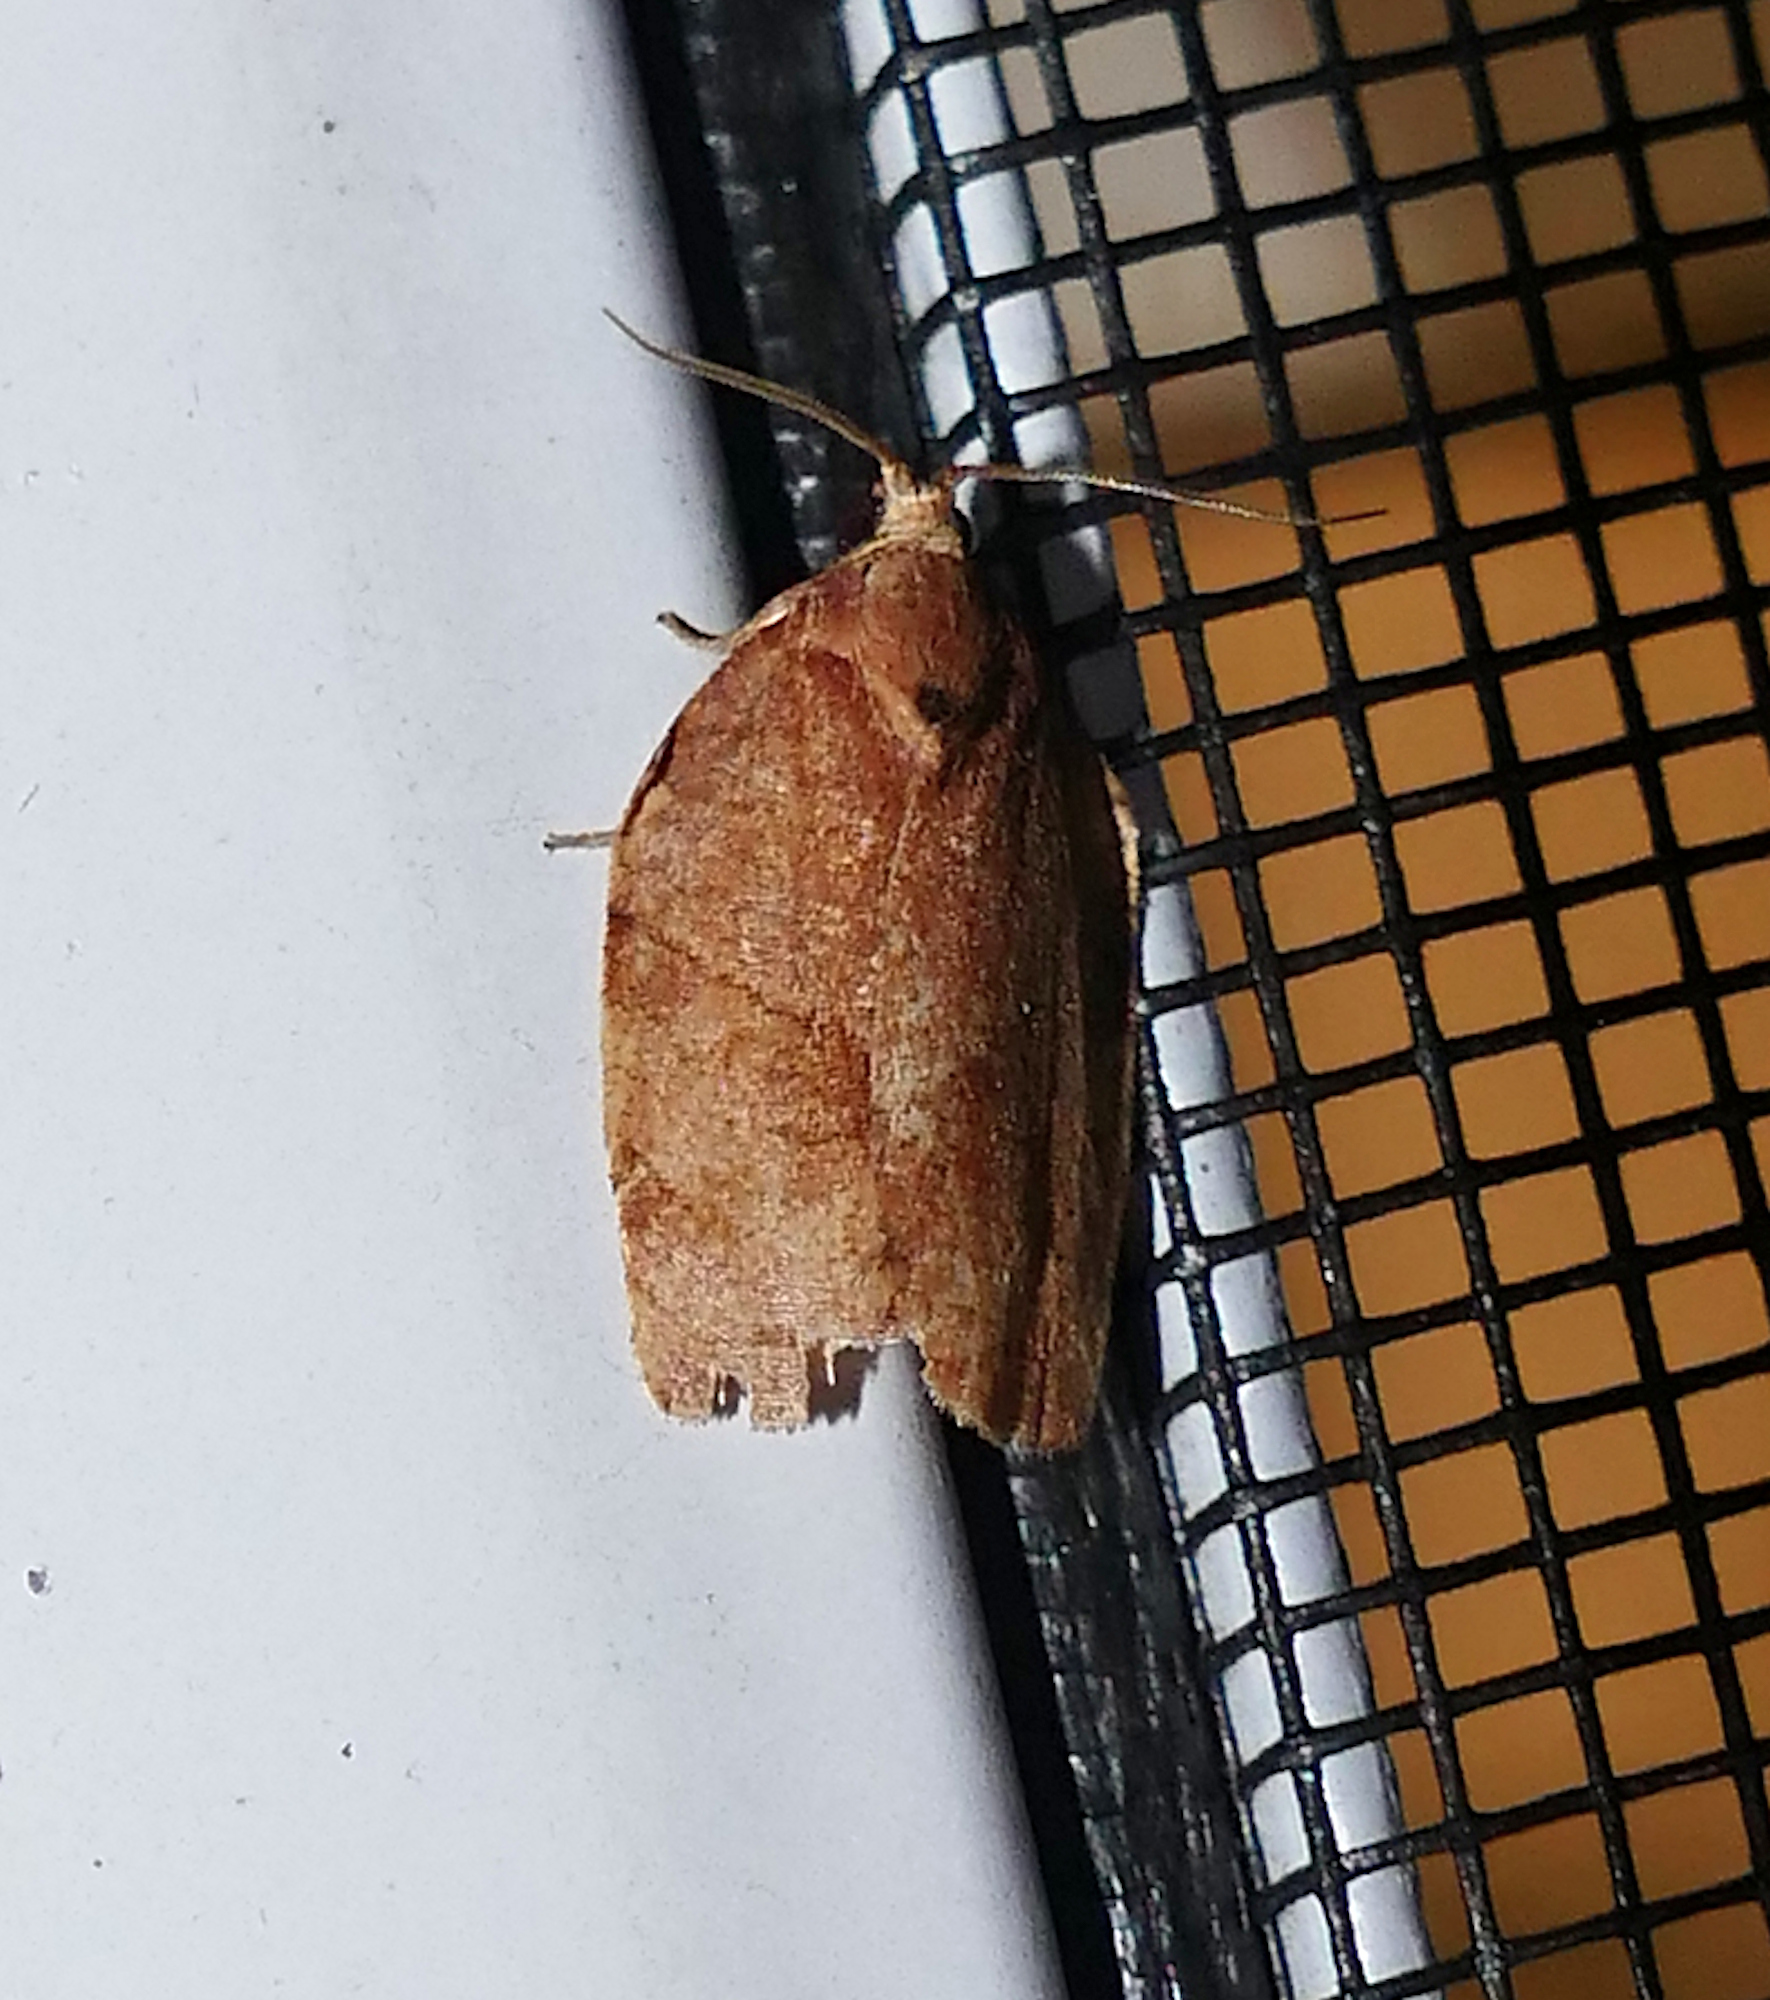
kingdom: Animalia
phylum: Arthropoda
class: Insecta
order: Lepidoptera
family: Tortricidae
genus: Choristoneura
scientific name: Choristoneura rosaceana
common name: Oblique-banded leafroller moth
